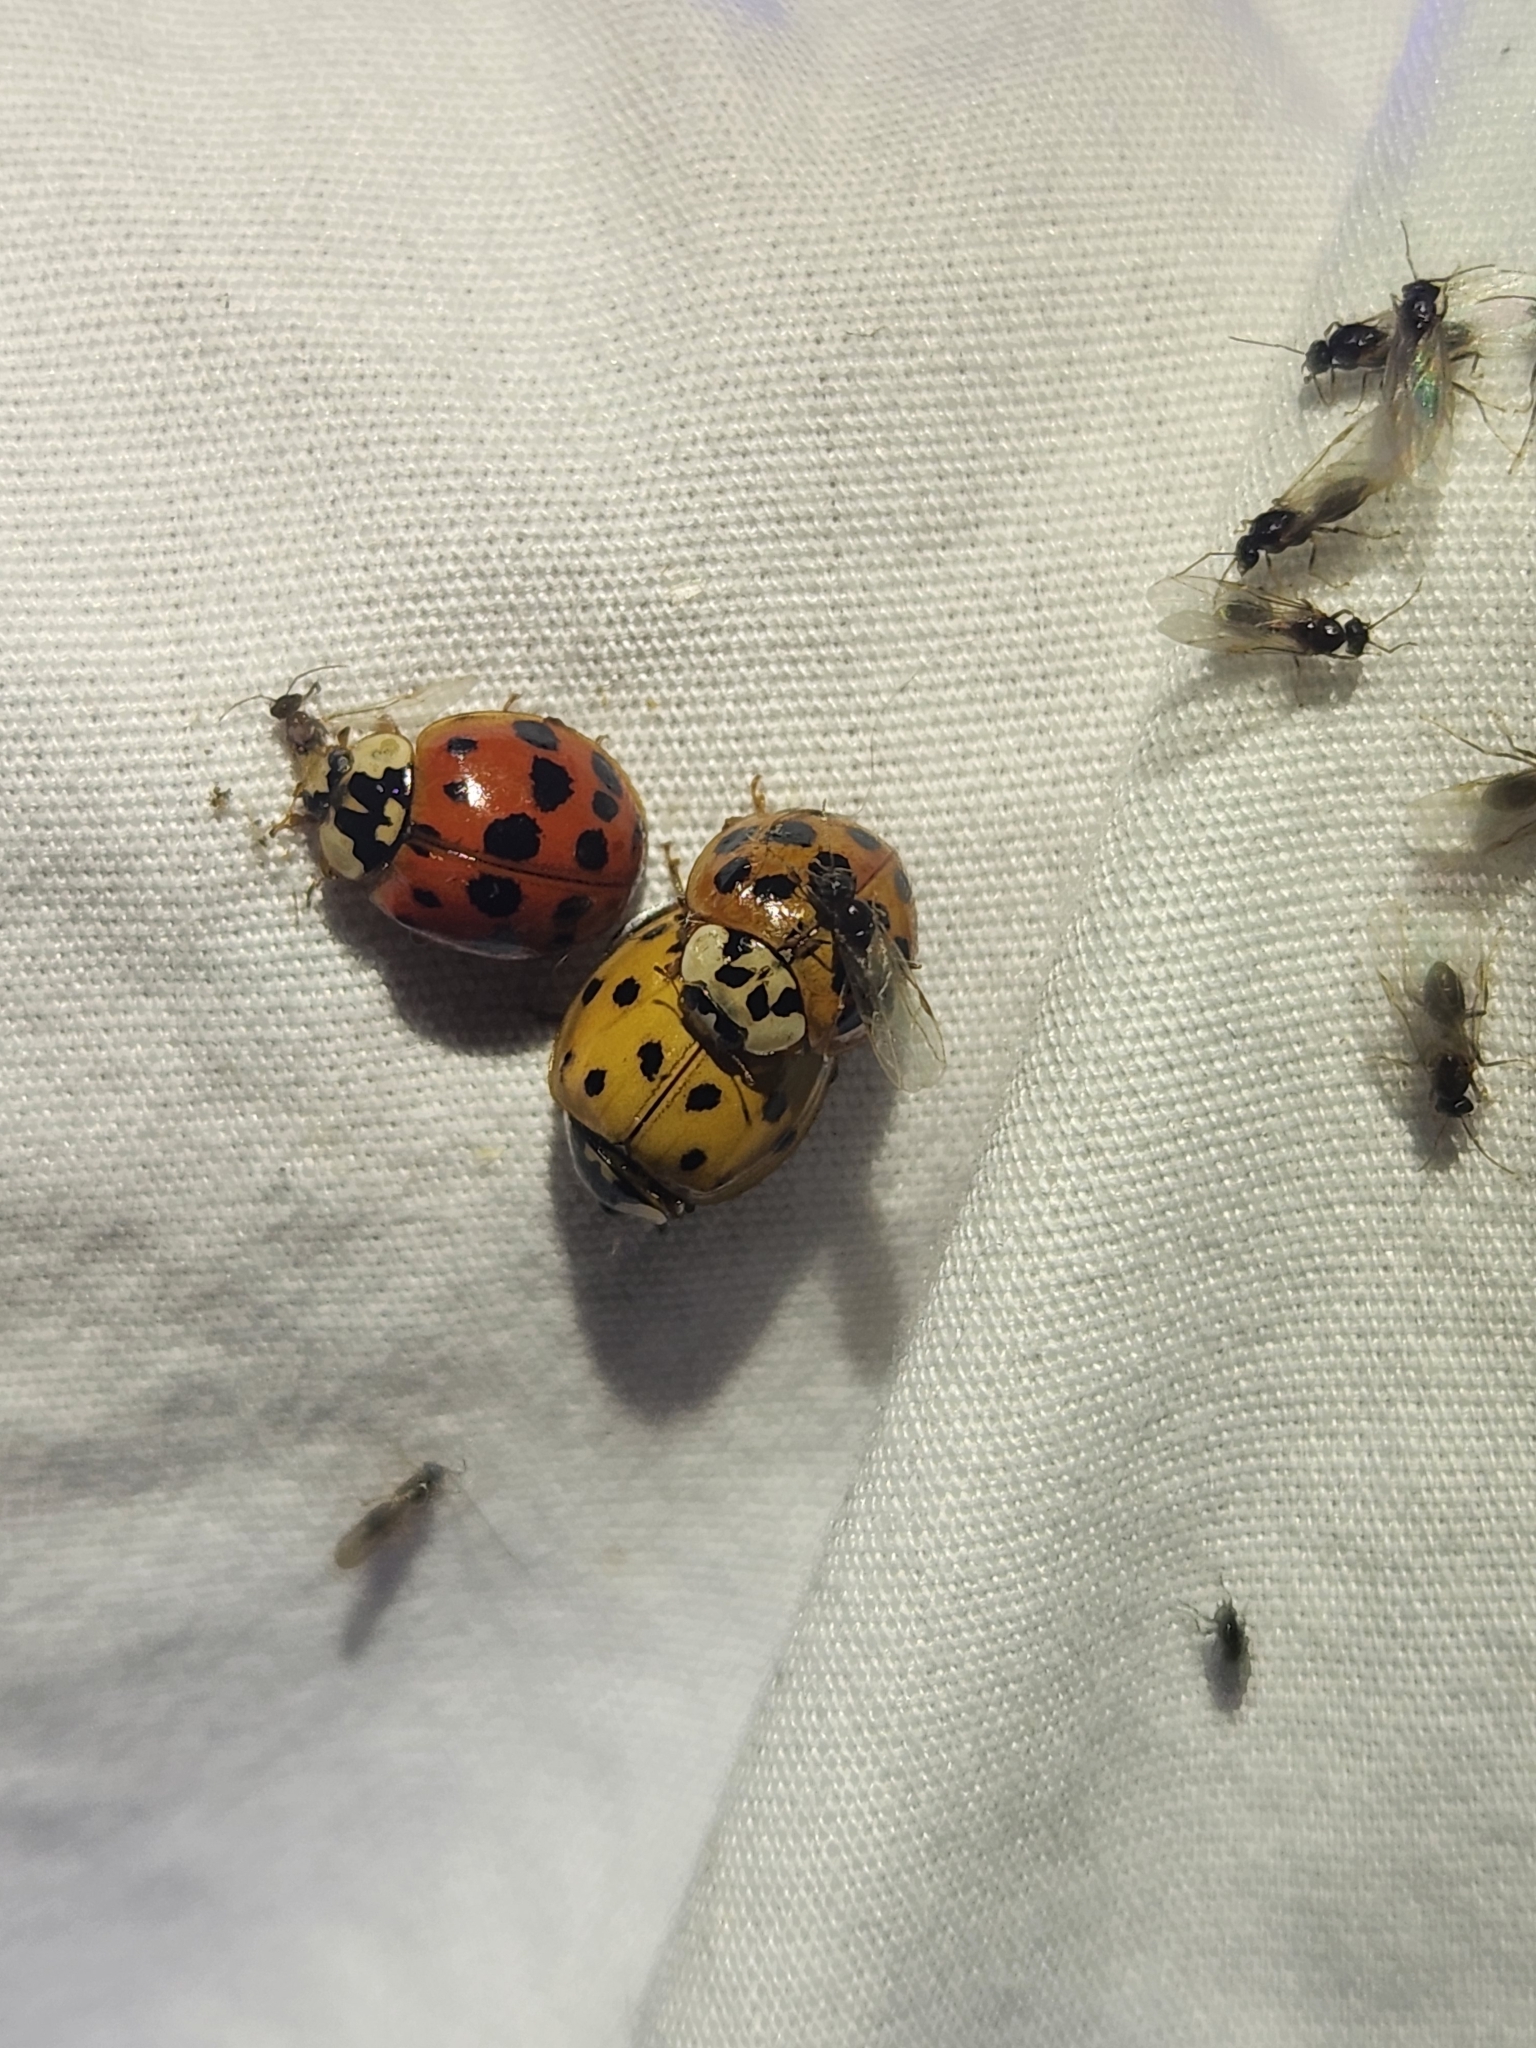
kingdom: Animalia
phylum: Arthropoda
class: Insecta
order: Coleoptera
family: Coccinellidae
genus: Harmonia
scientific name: Harmonia axyridis
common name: Harlequin ladybird
